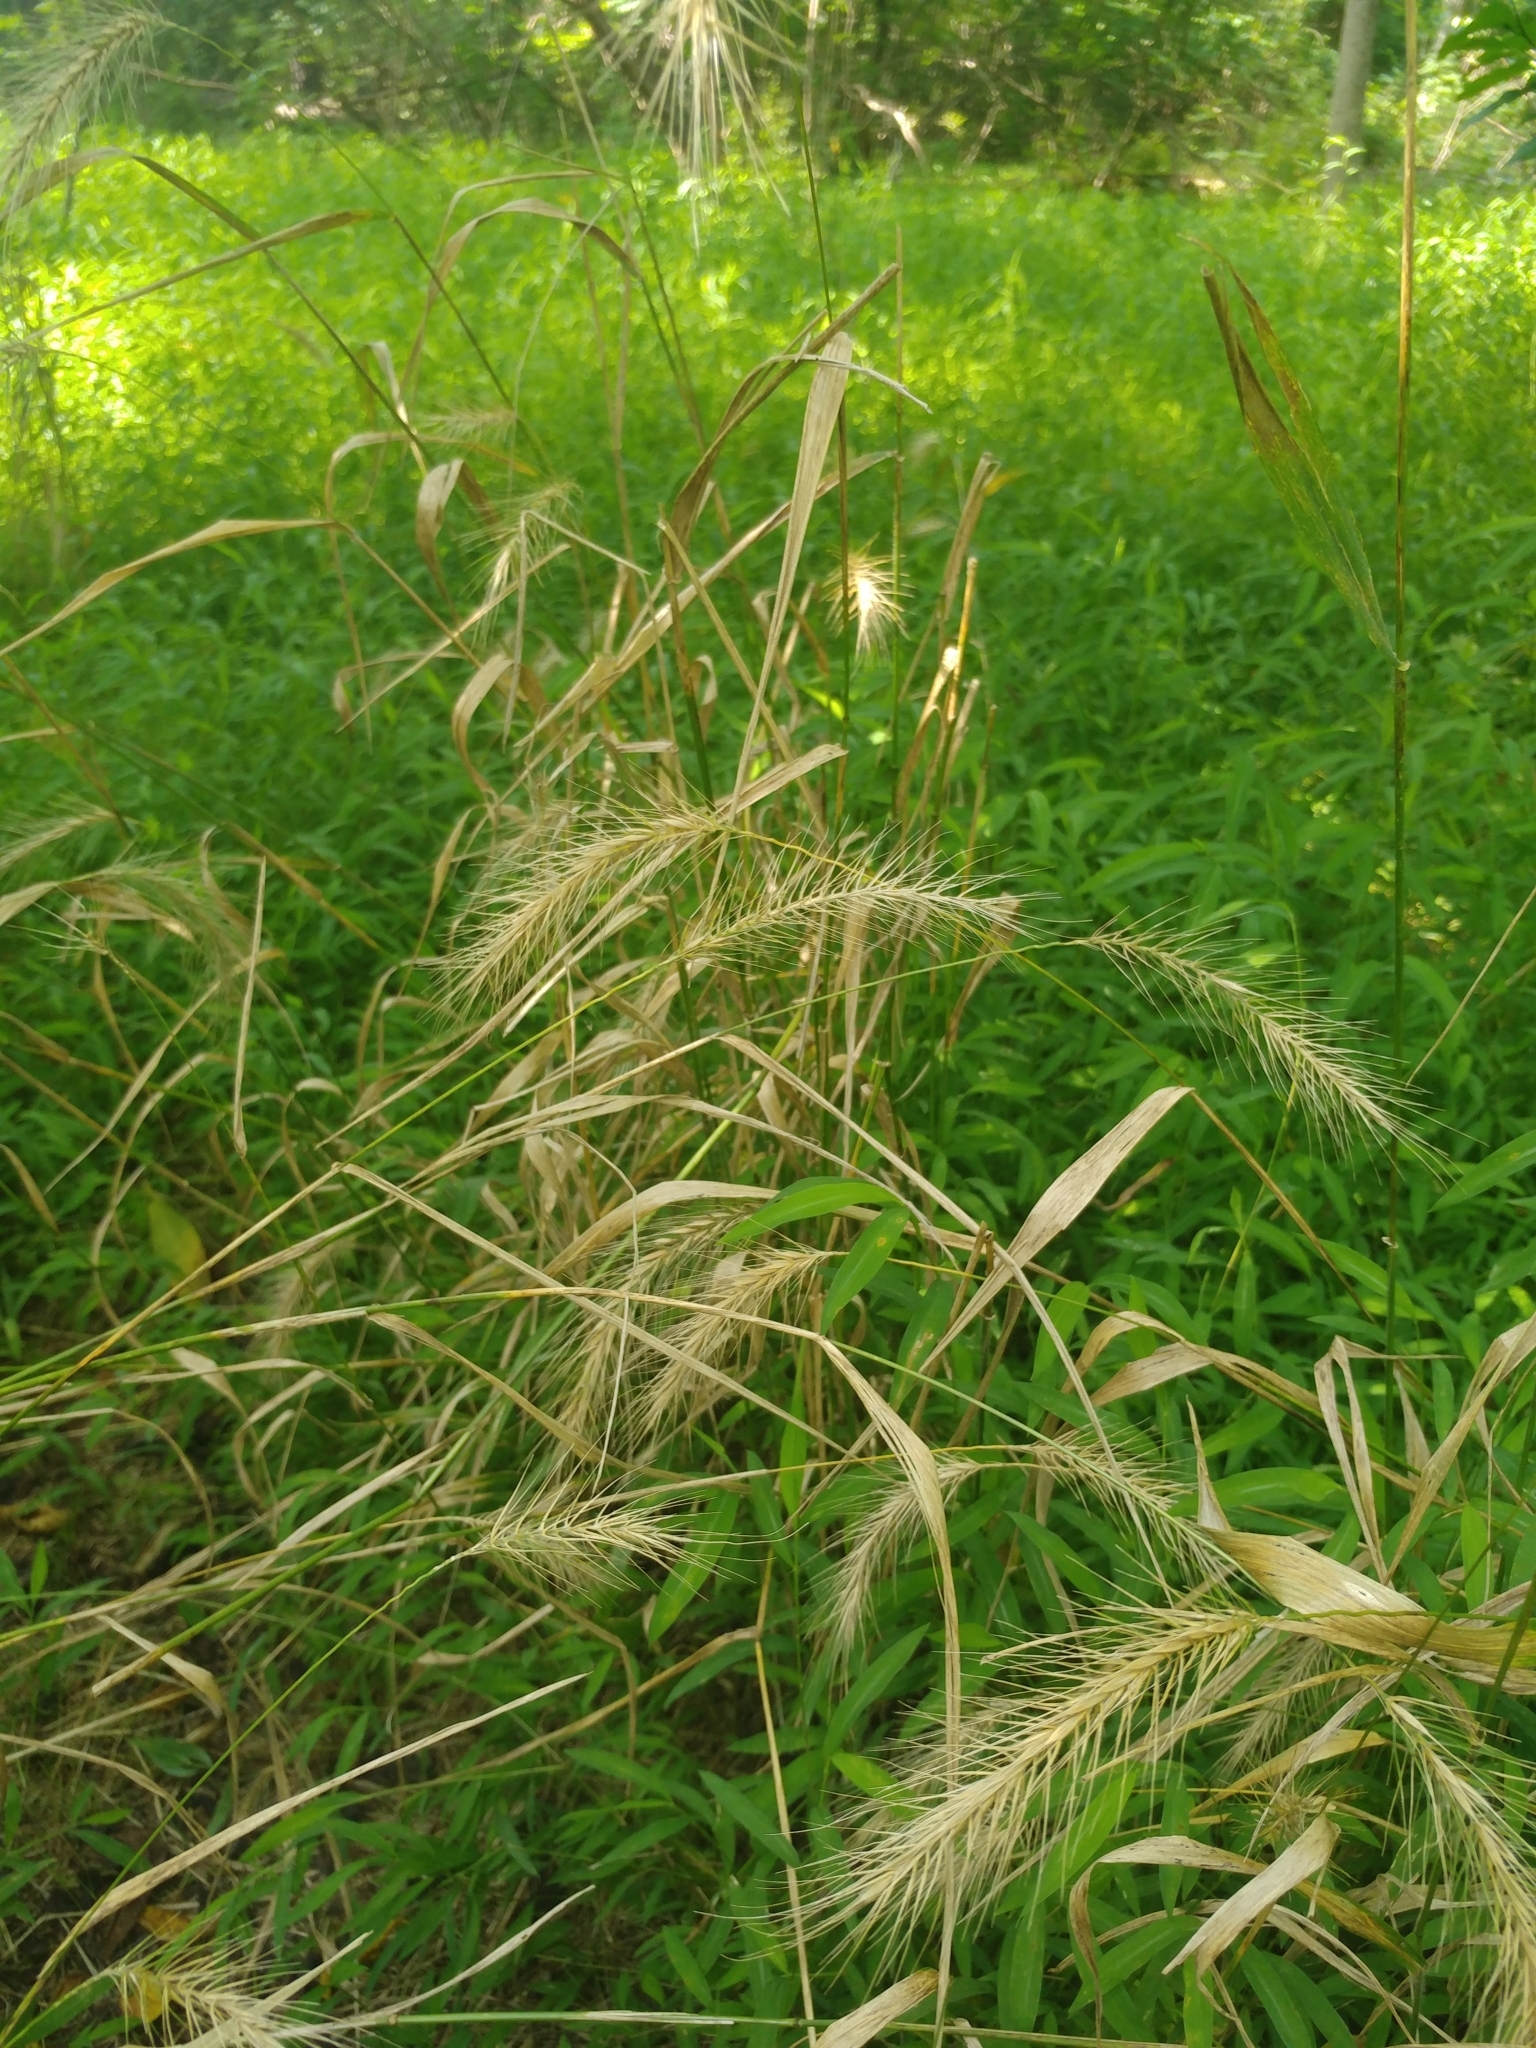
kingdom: Plantae
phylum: Tracheophyta
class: Liliopsida
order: Poales
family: Poaceae
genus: Elymus
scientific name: Elymus villosus
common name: Downy wild rye
